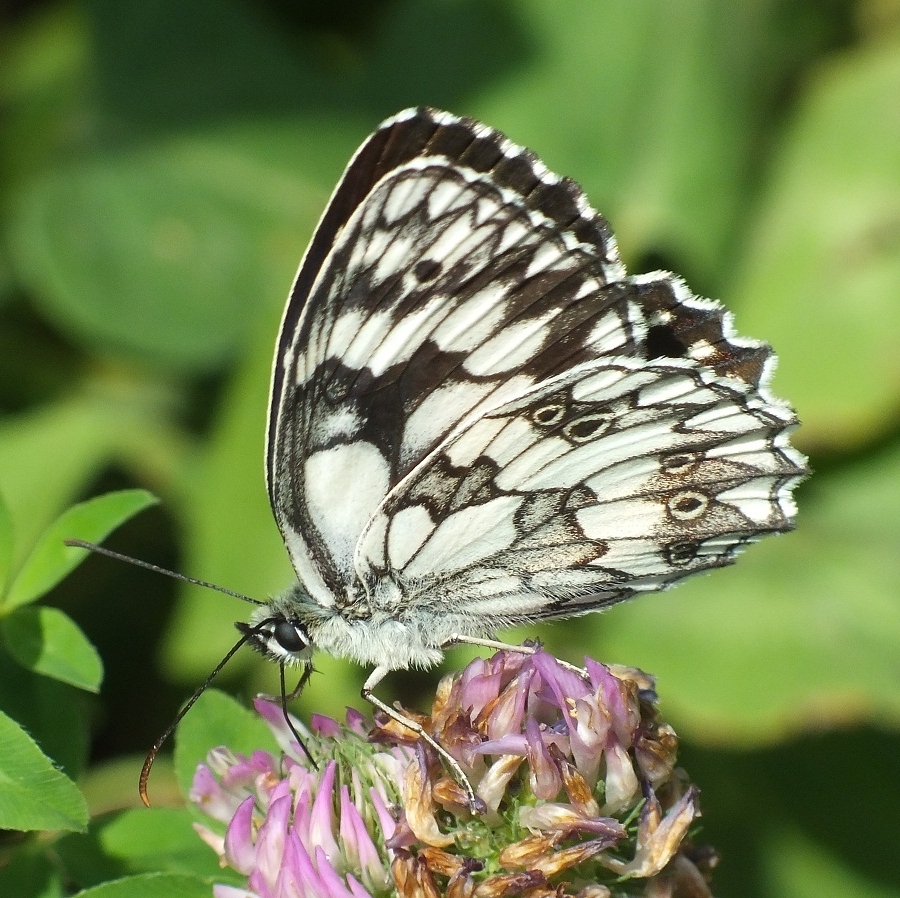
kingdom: Animalia
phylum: Arthropoda
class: Insecta
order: Lepidoptera
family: Nymphalidae
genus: Melanargia
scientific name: Melanargia galathea
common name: Marbled white
